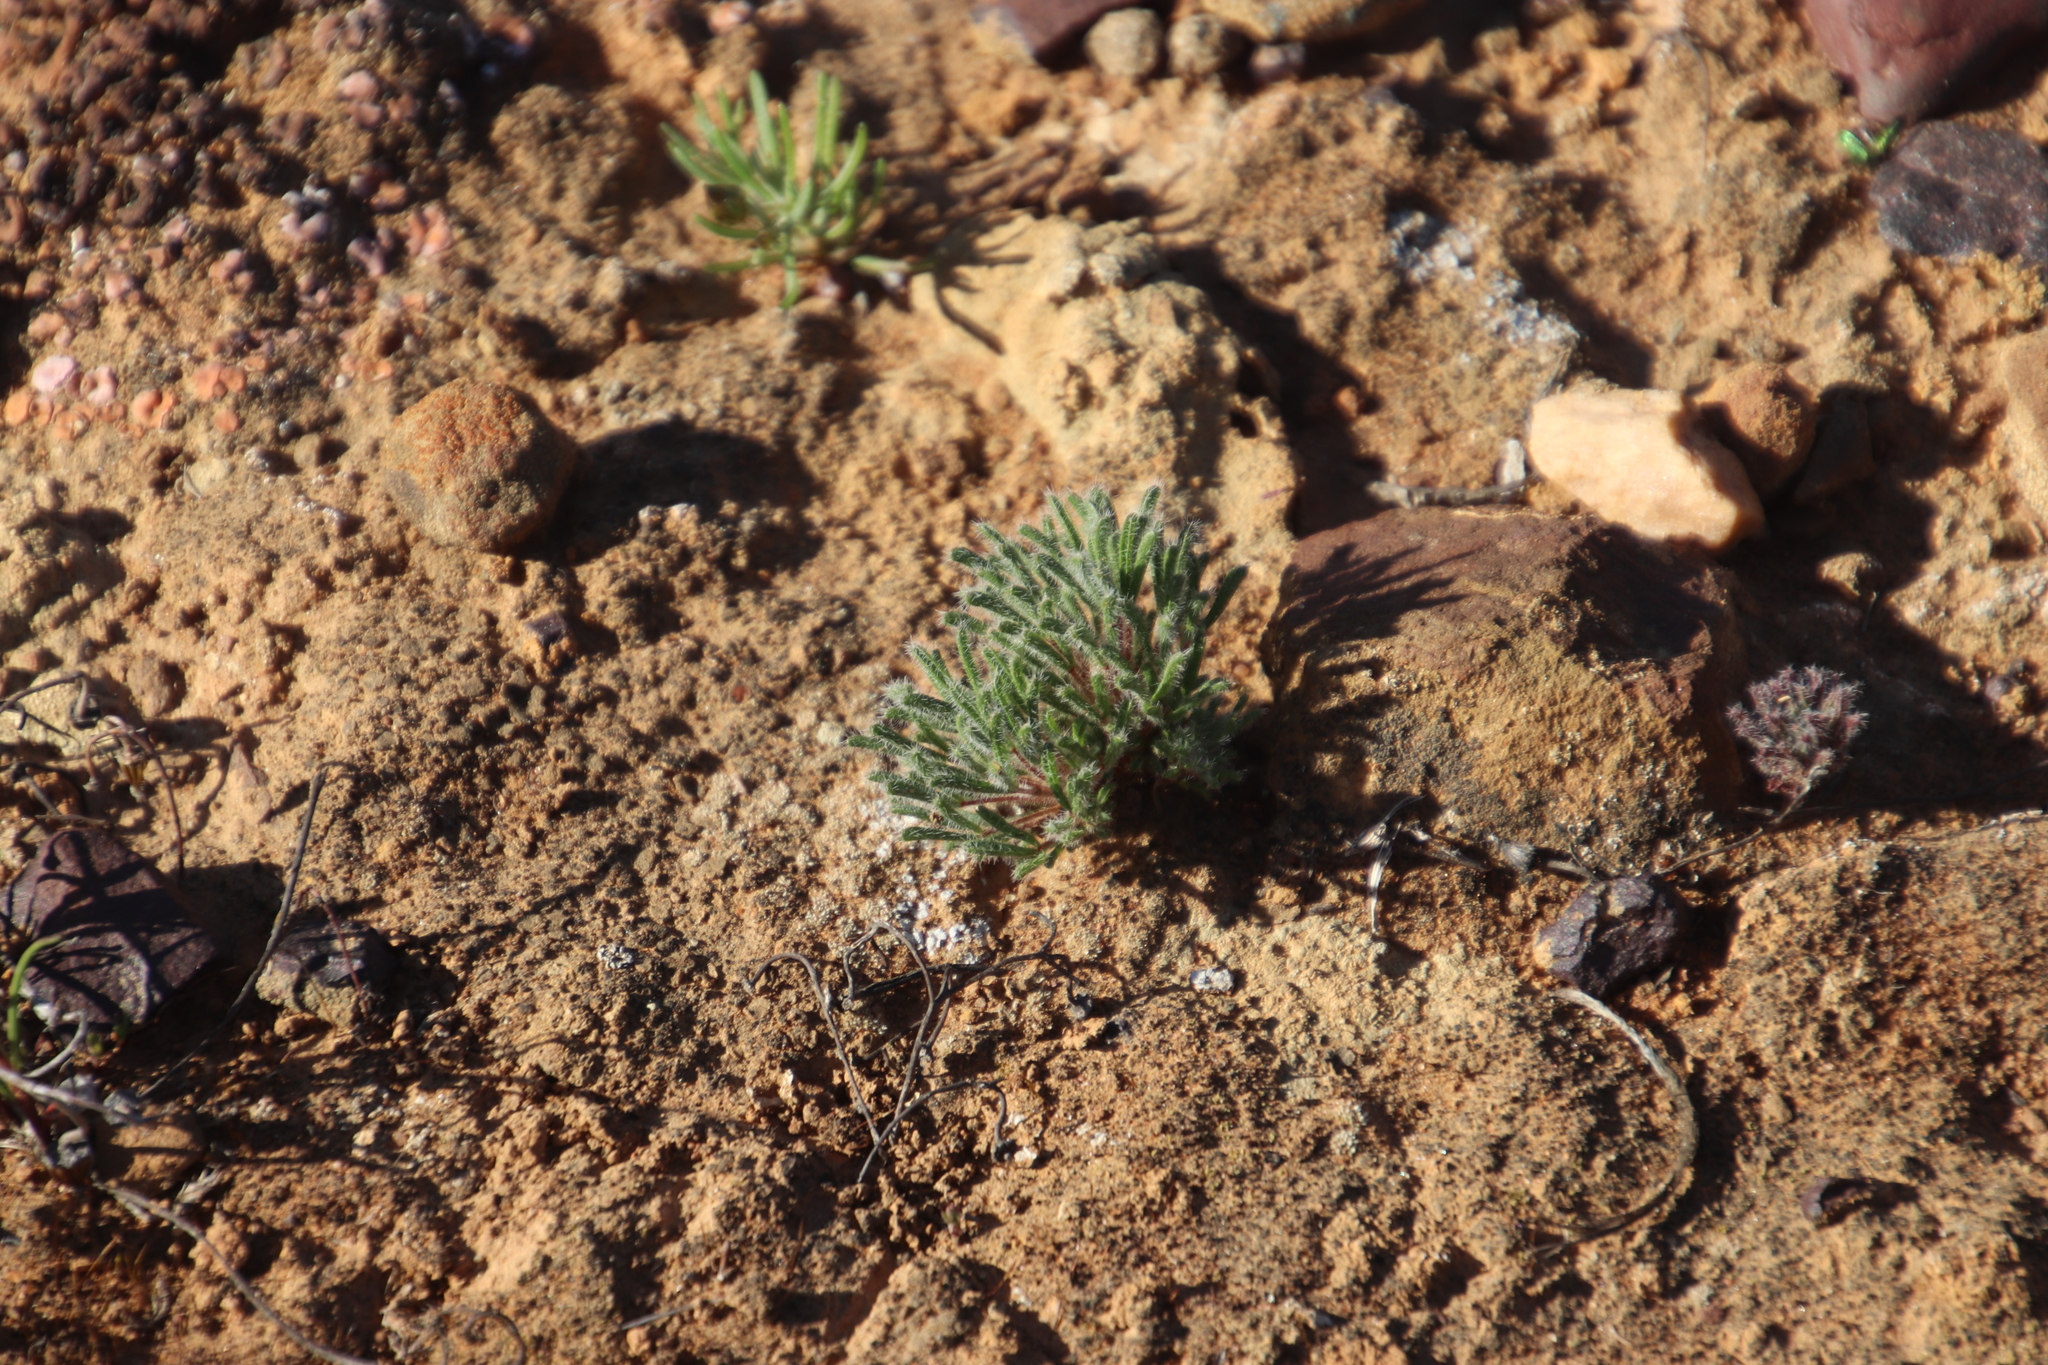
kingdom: Plantae
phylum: Tracheophyta
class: Magnoliopsida
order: Oxalidales
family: Oxalidaceae
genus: Oxalis
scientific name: Oxalis grammophylla
